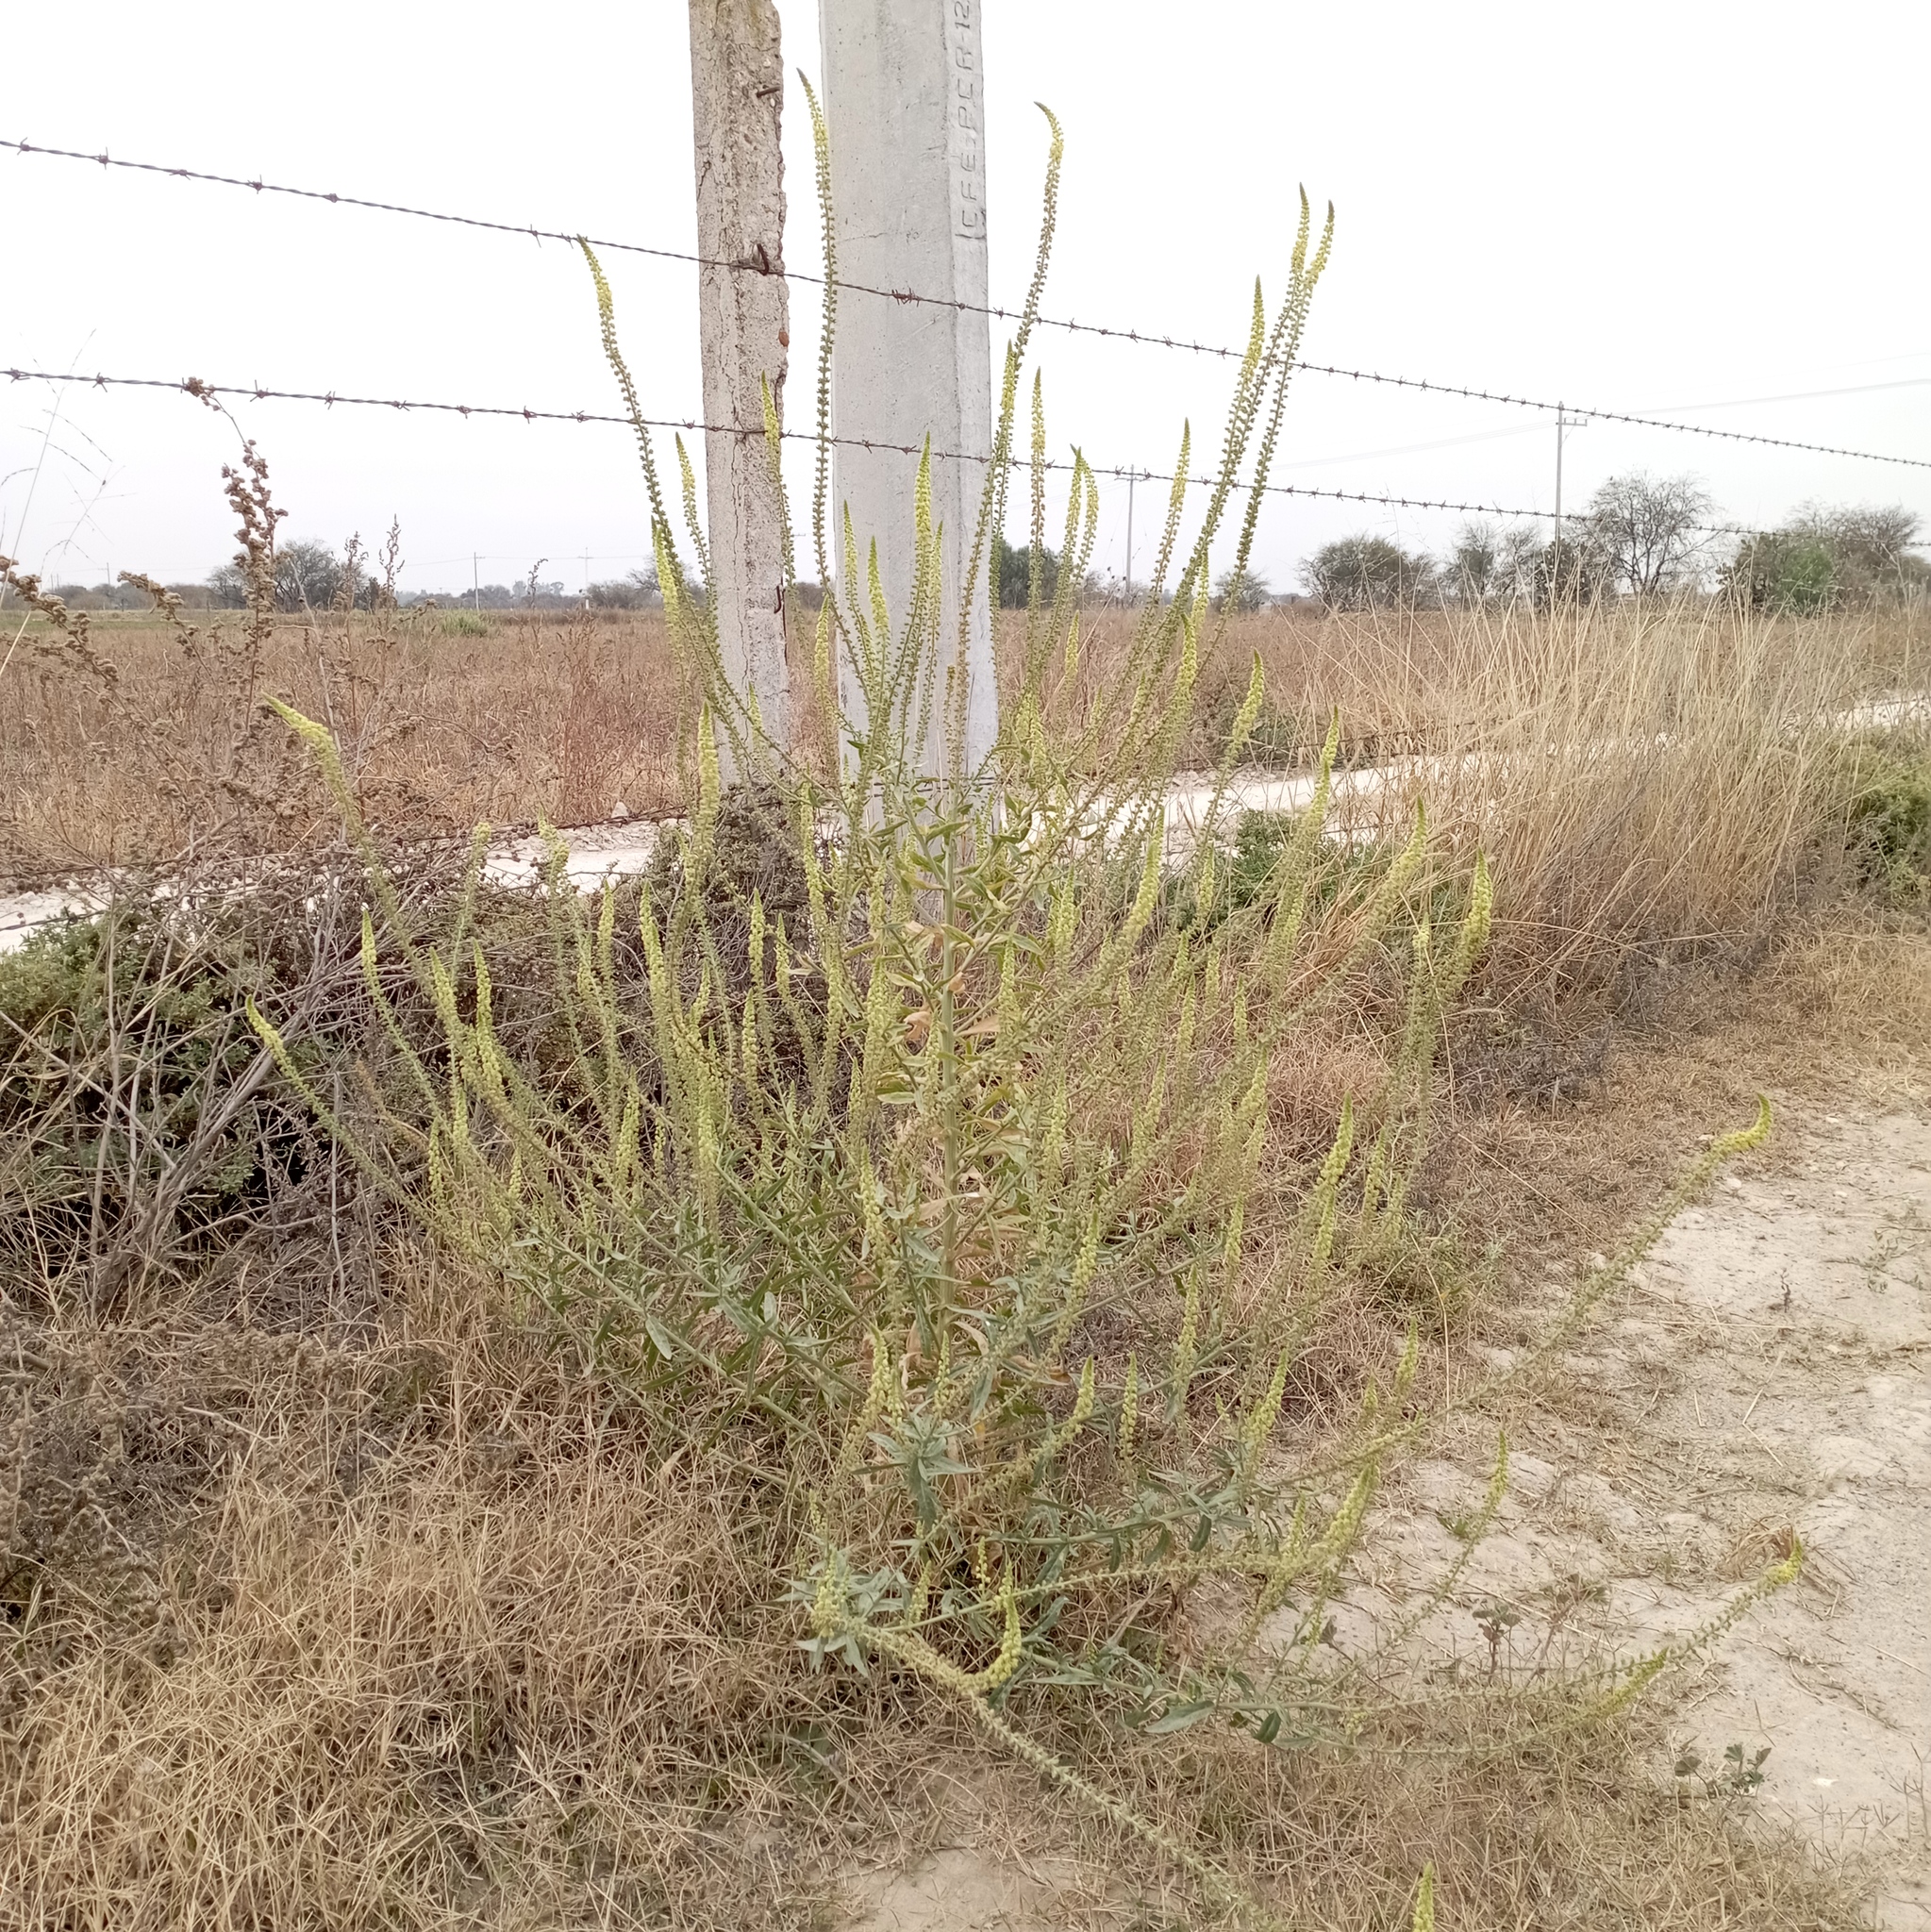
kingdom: Plantae
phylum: Tracheophyta
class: Magnoliopsida
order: Brassicales
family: Resedaceae
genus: Reseda
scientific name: Reseda luteola
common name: Weld
